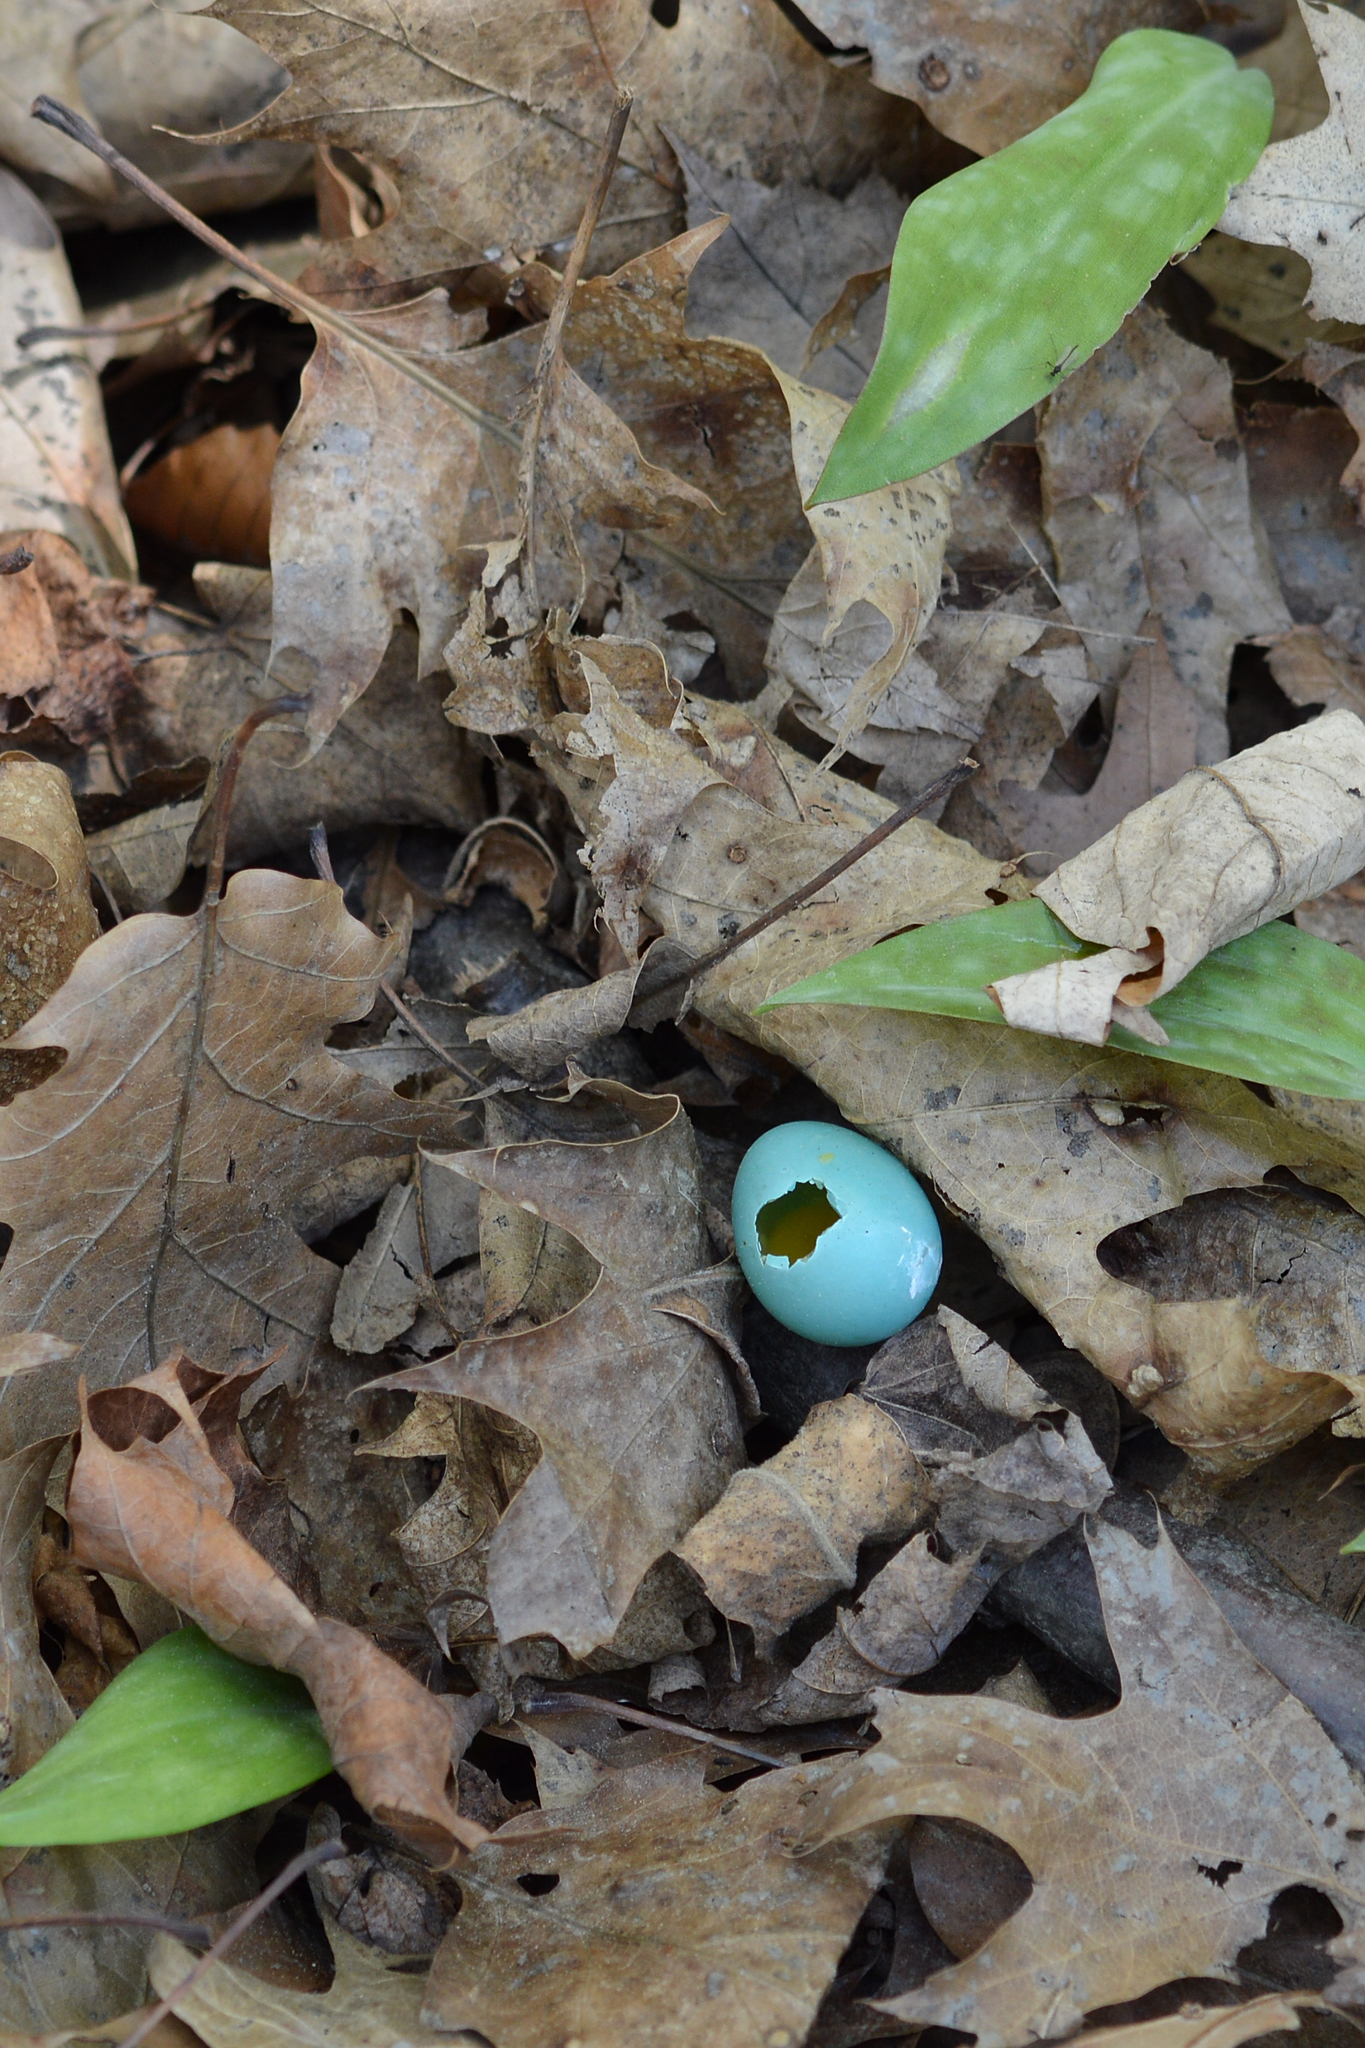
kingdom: Animalia
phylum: Chordata
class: Aves
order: Passeriformes
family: Turdidae
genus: Turdus
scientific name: Turdus migratorius
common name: American robin
